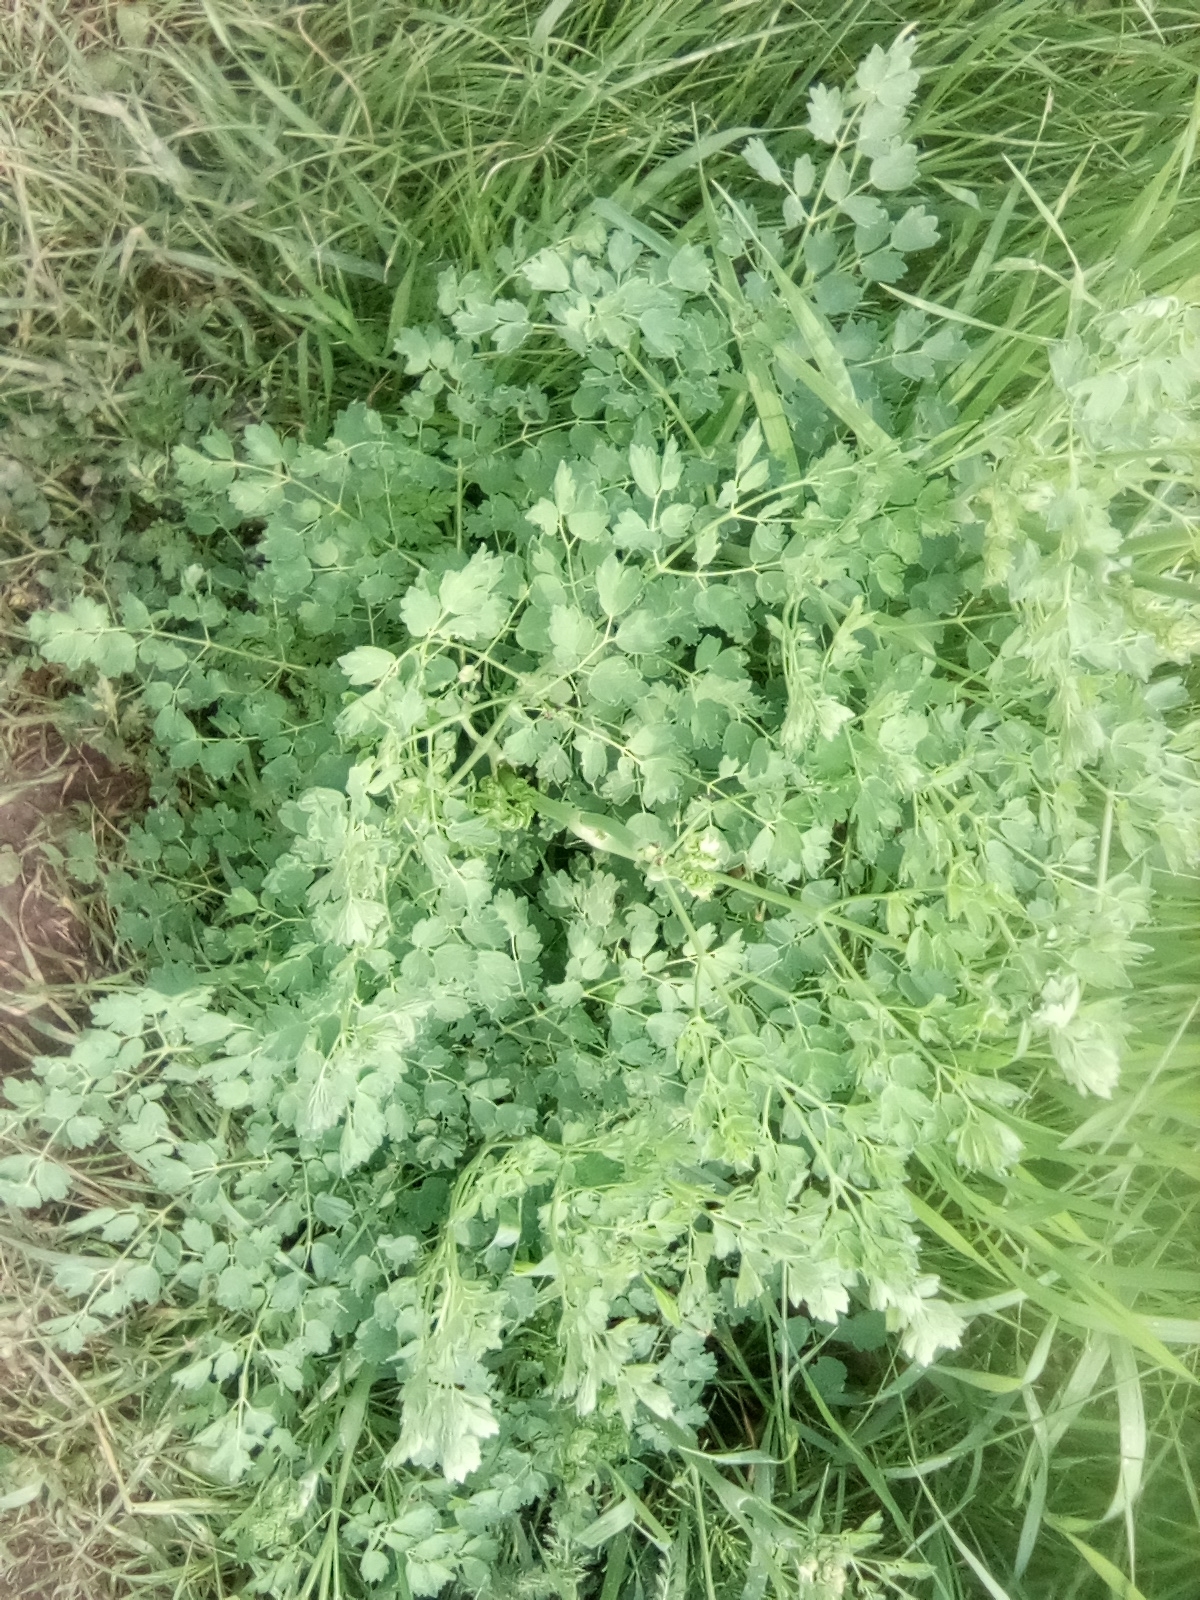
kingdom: Plantae
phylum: Tracheophyta
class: Magnoliopsida
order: Ranunculales
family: Ranunculaceae
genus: Thalictrum
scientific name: Thalictrum minus
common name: Lesser meadow-rue
